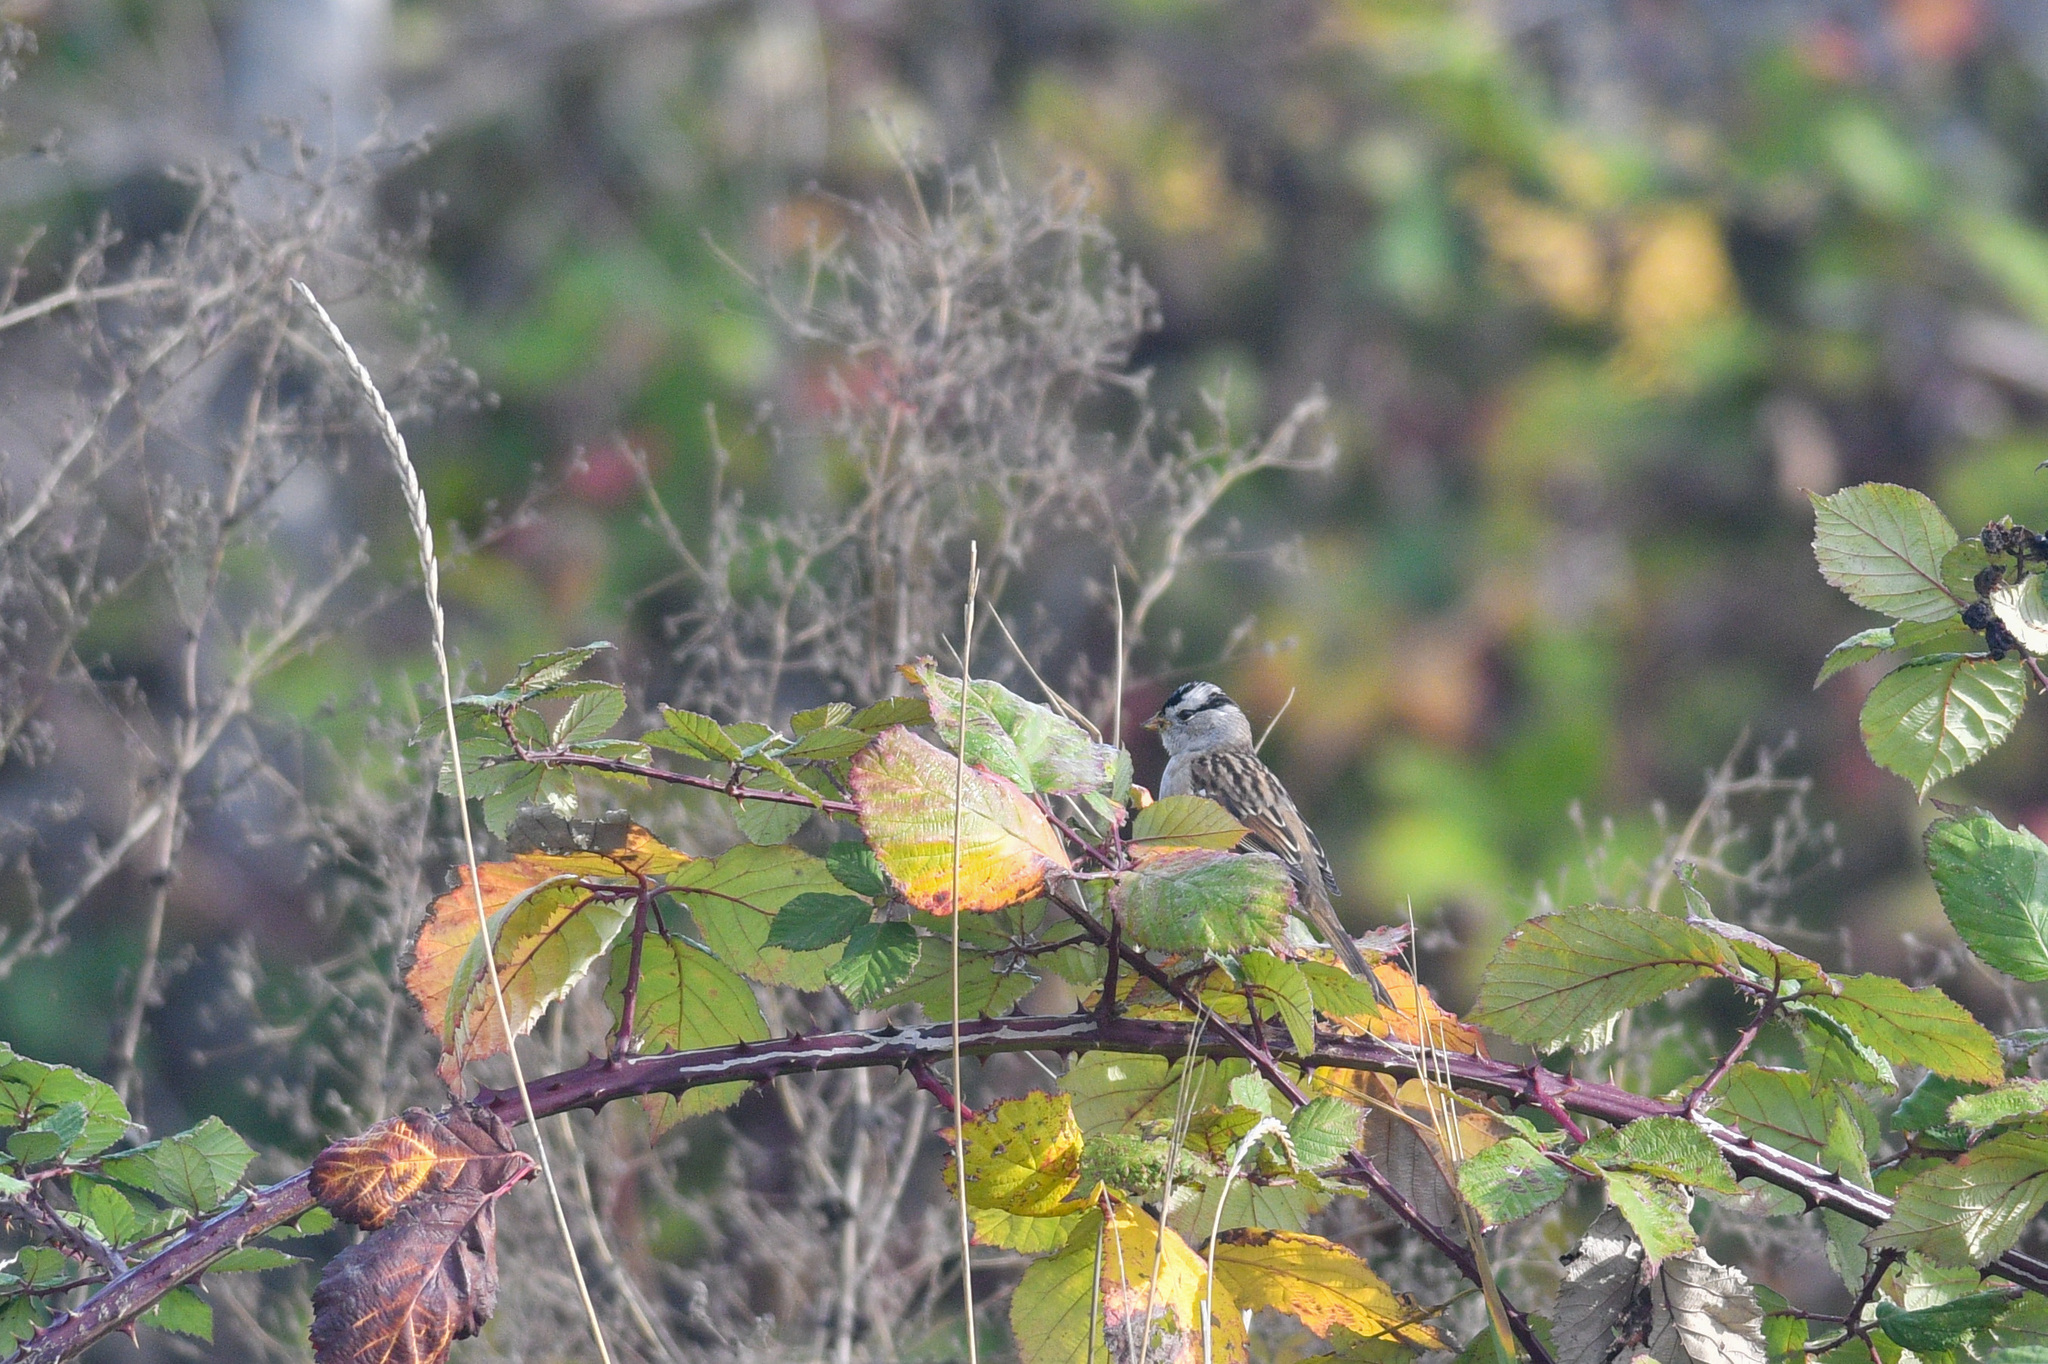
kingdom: Animalia
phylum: Chordata
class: Aves
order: Passeriformes
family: Passerellidae
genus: Zonotrichia
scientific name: Zonotrichia leucophrys
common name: White-crowned sparrow
